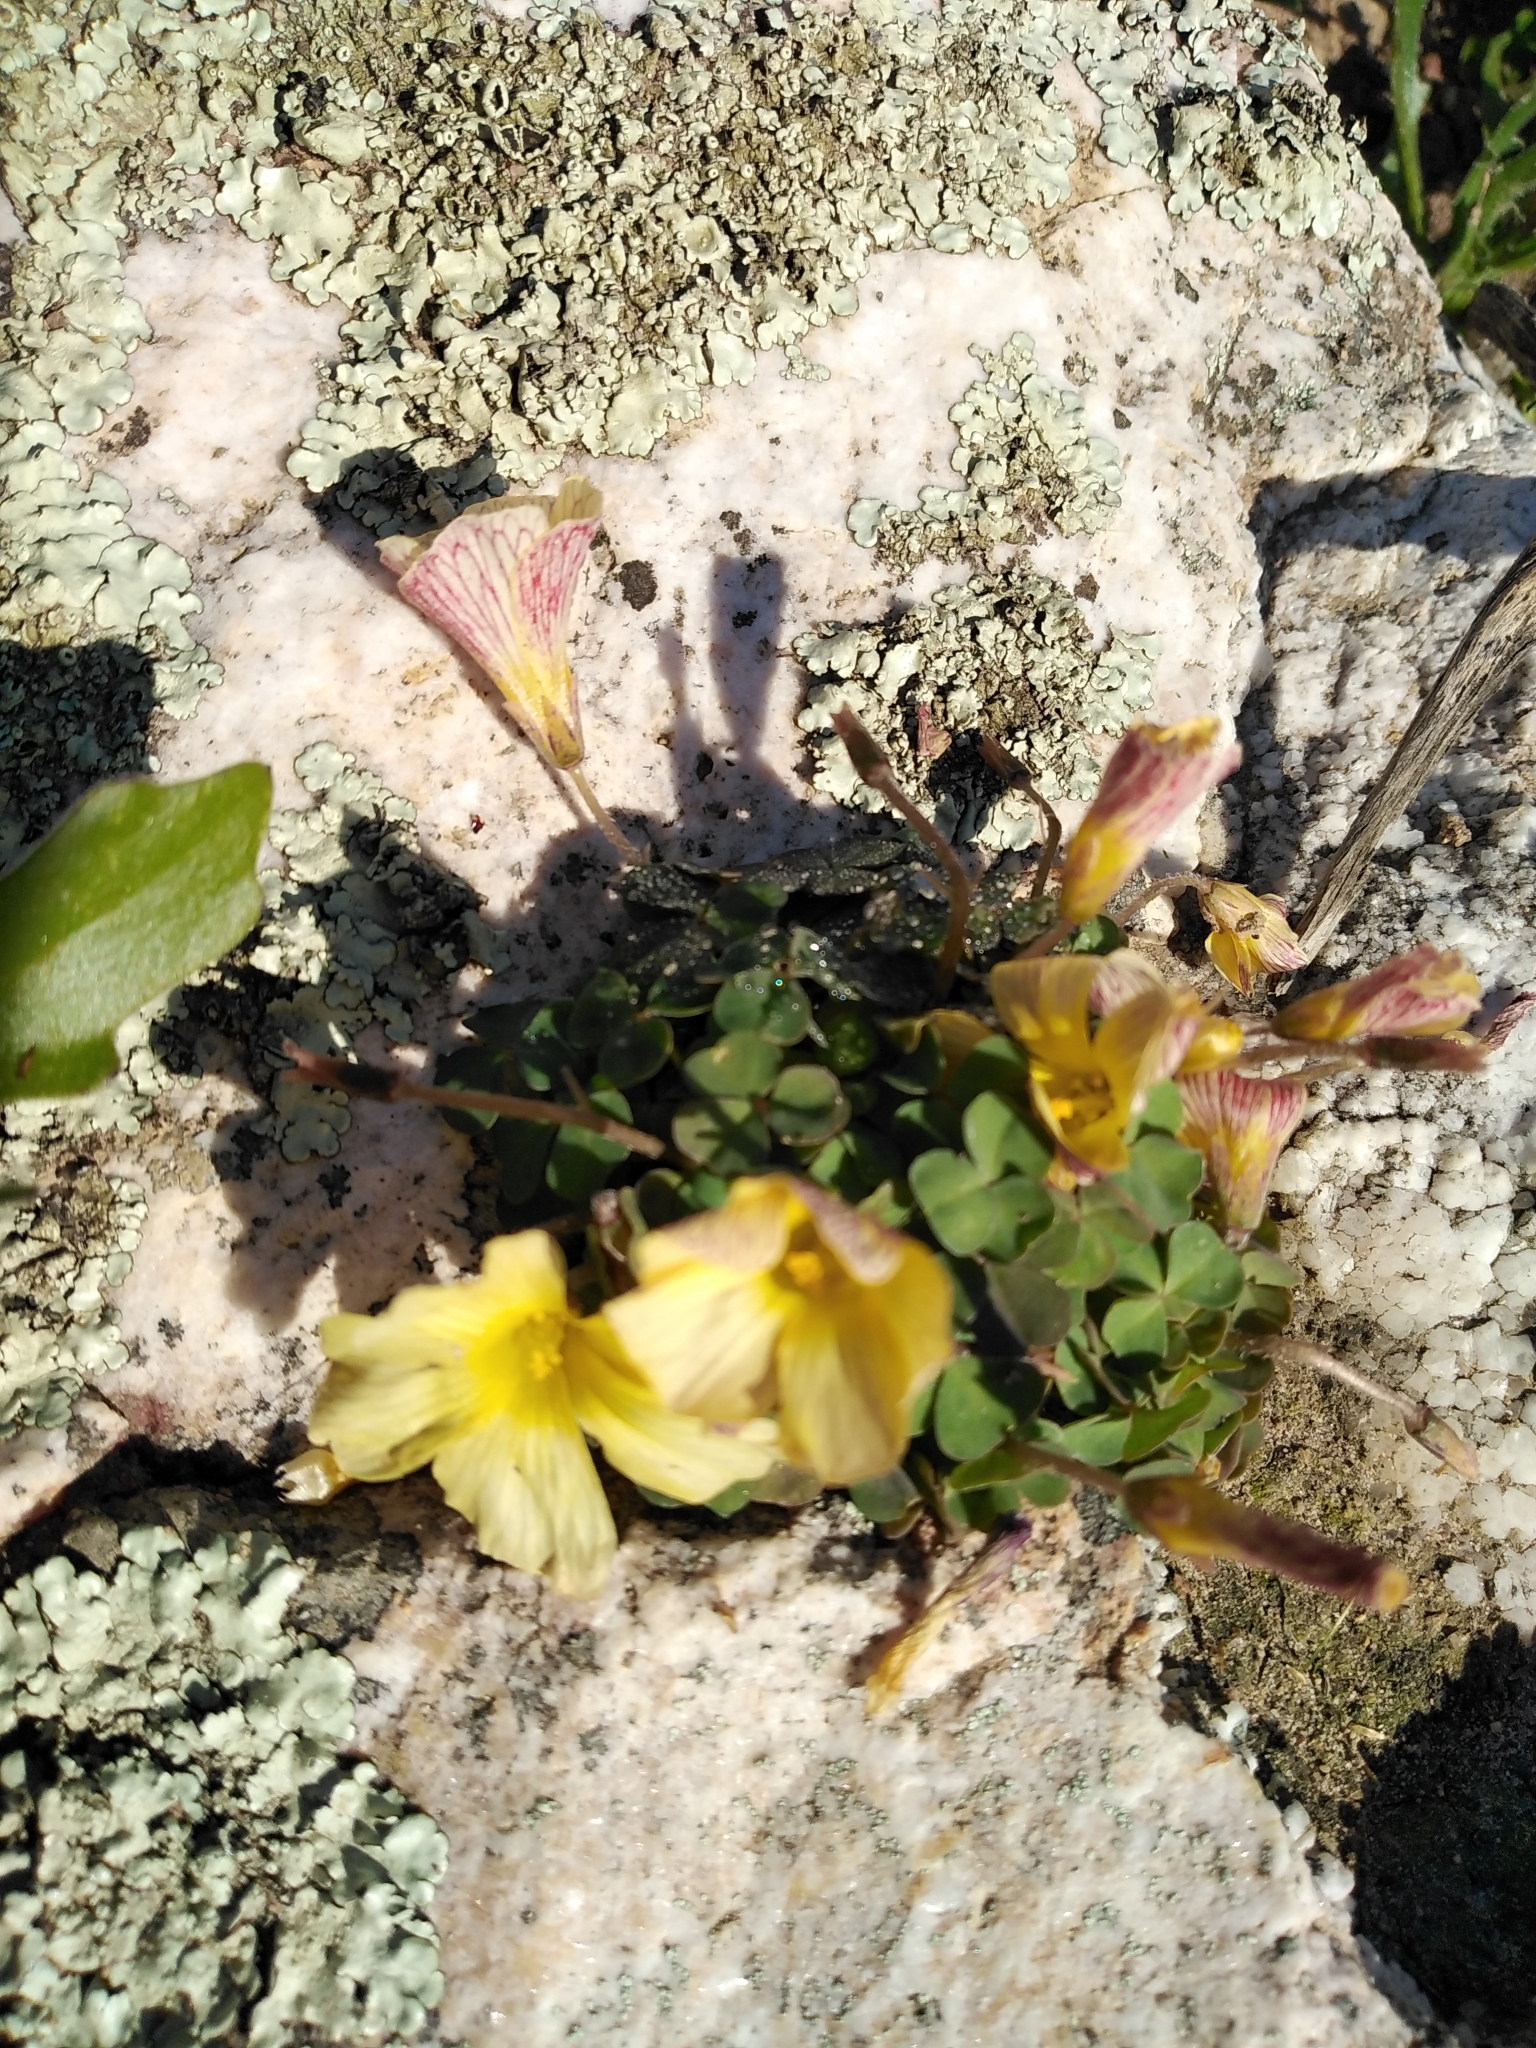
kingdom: Plantae
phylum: Tracheophyta
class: Magnoliopsida
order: Oxalidales
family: Oxalidaceae
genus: Oxalis
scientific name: Oxalis obtusa
